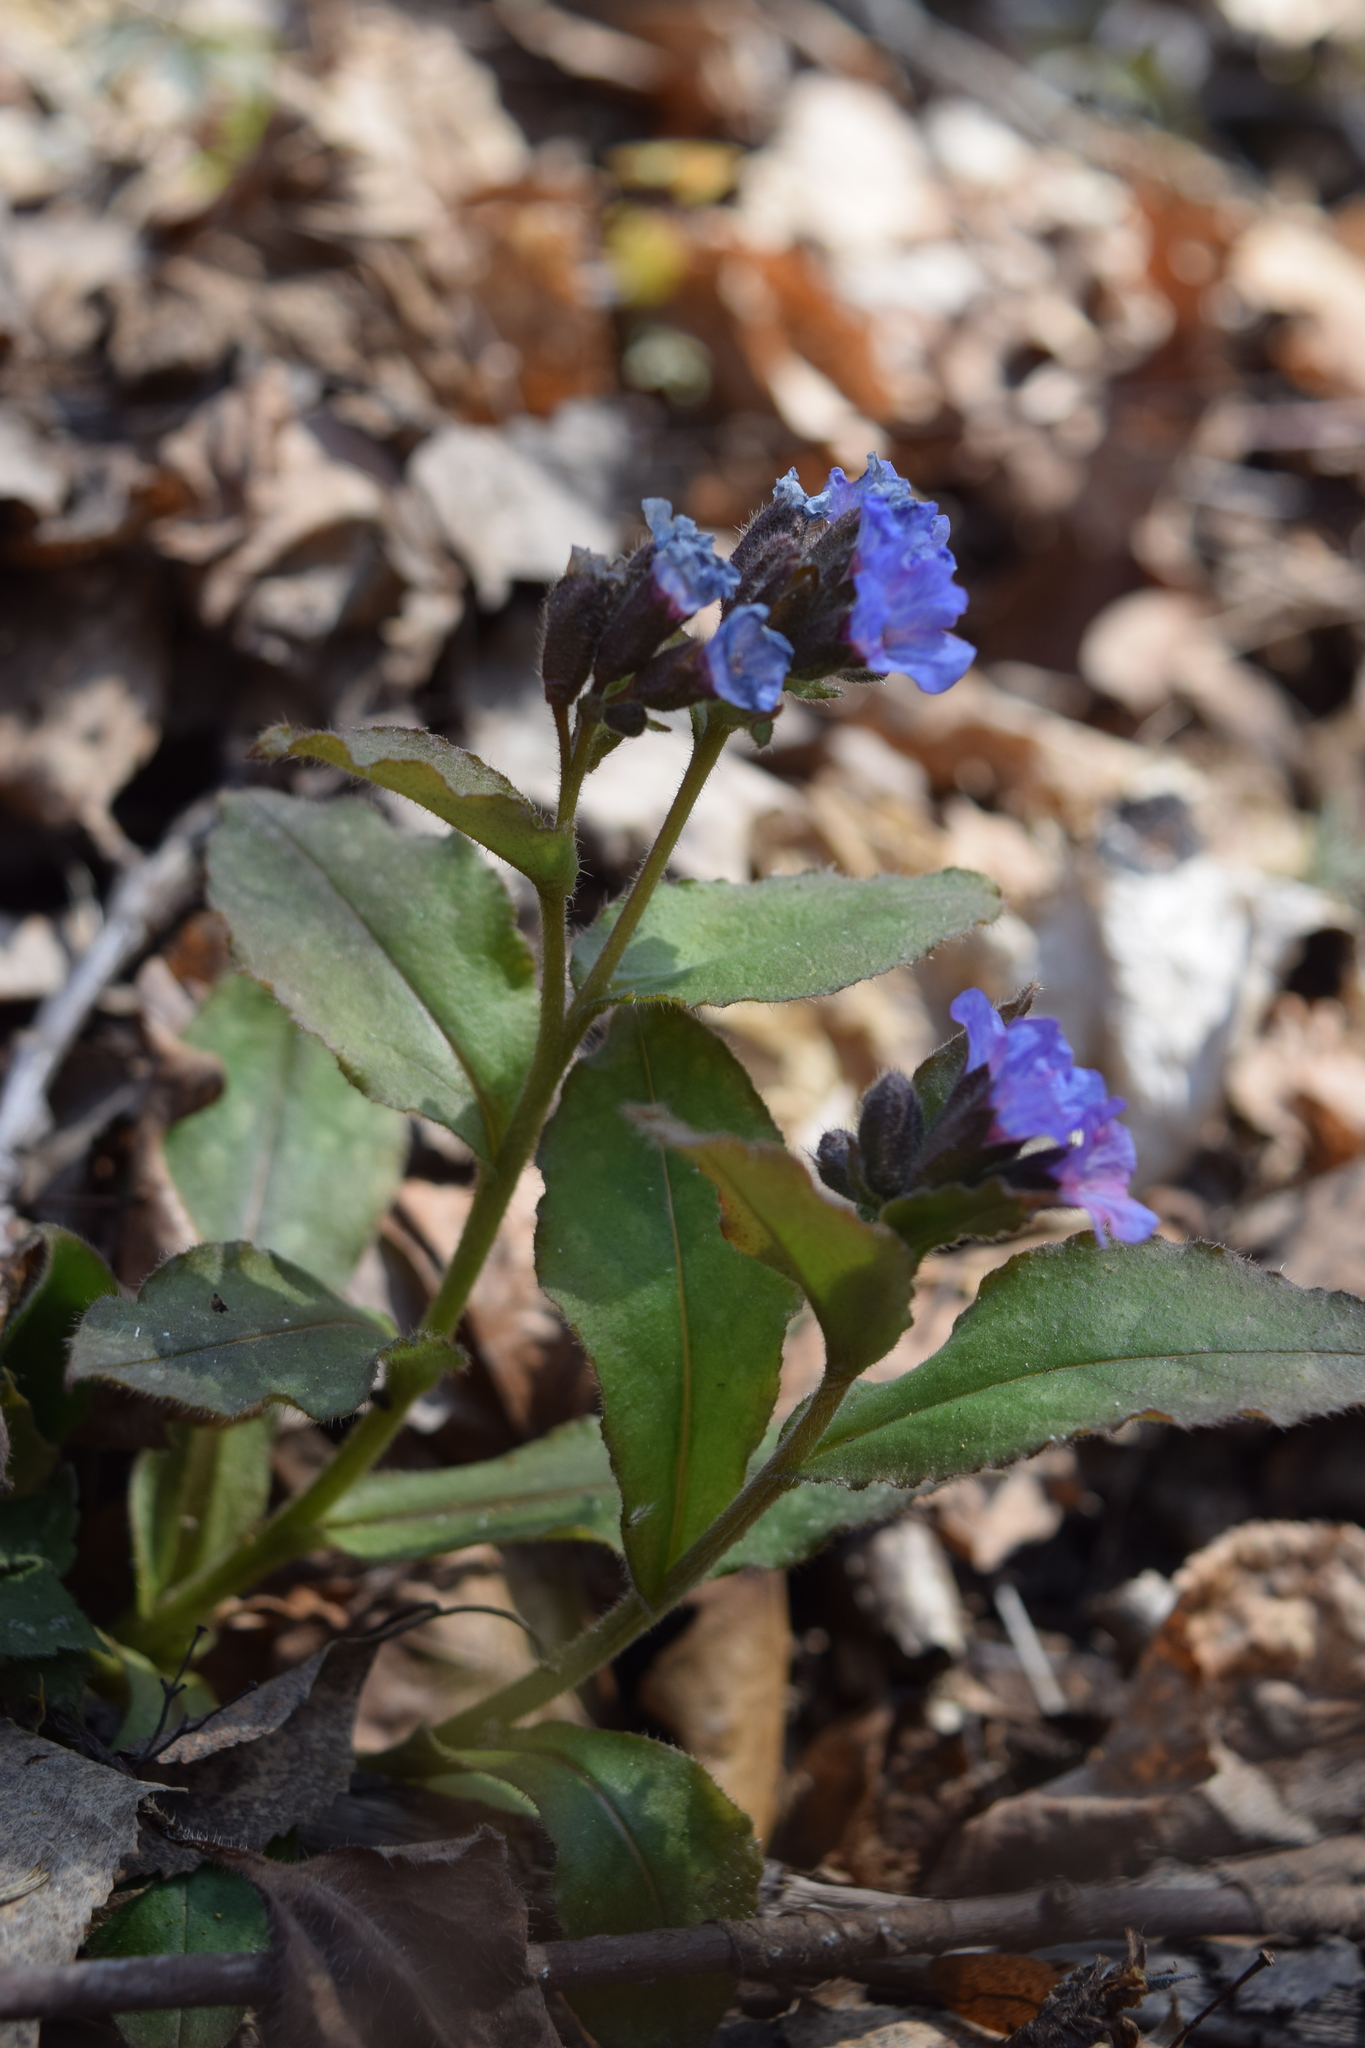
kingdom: Plantae
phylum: Tracheophyta
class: Magnoliopsida
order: Boraginales
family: Boraginaceae
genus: Pulmonaria
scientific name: Pulmonaria obscura
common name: Suffolk lungwort
